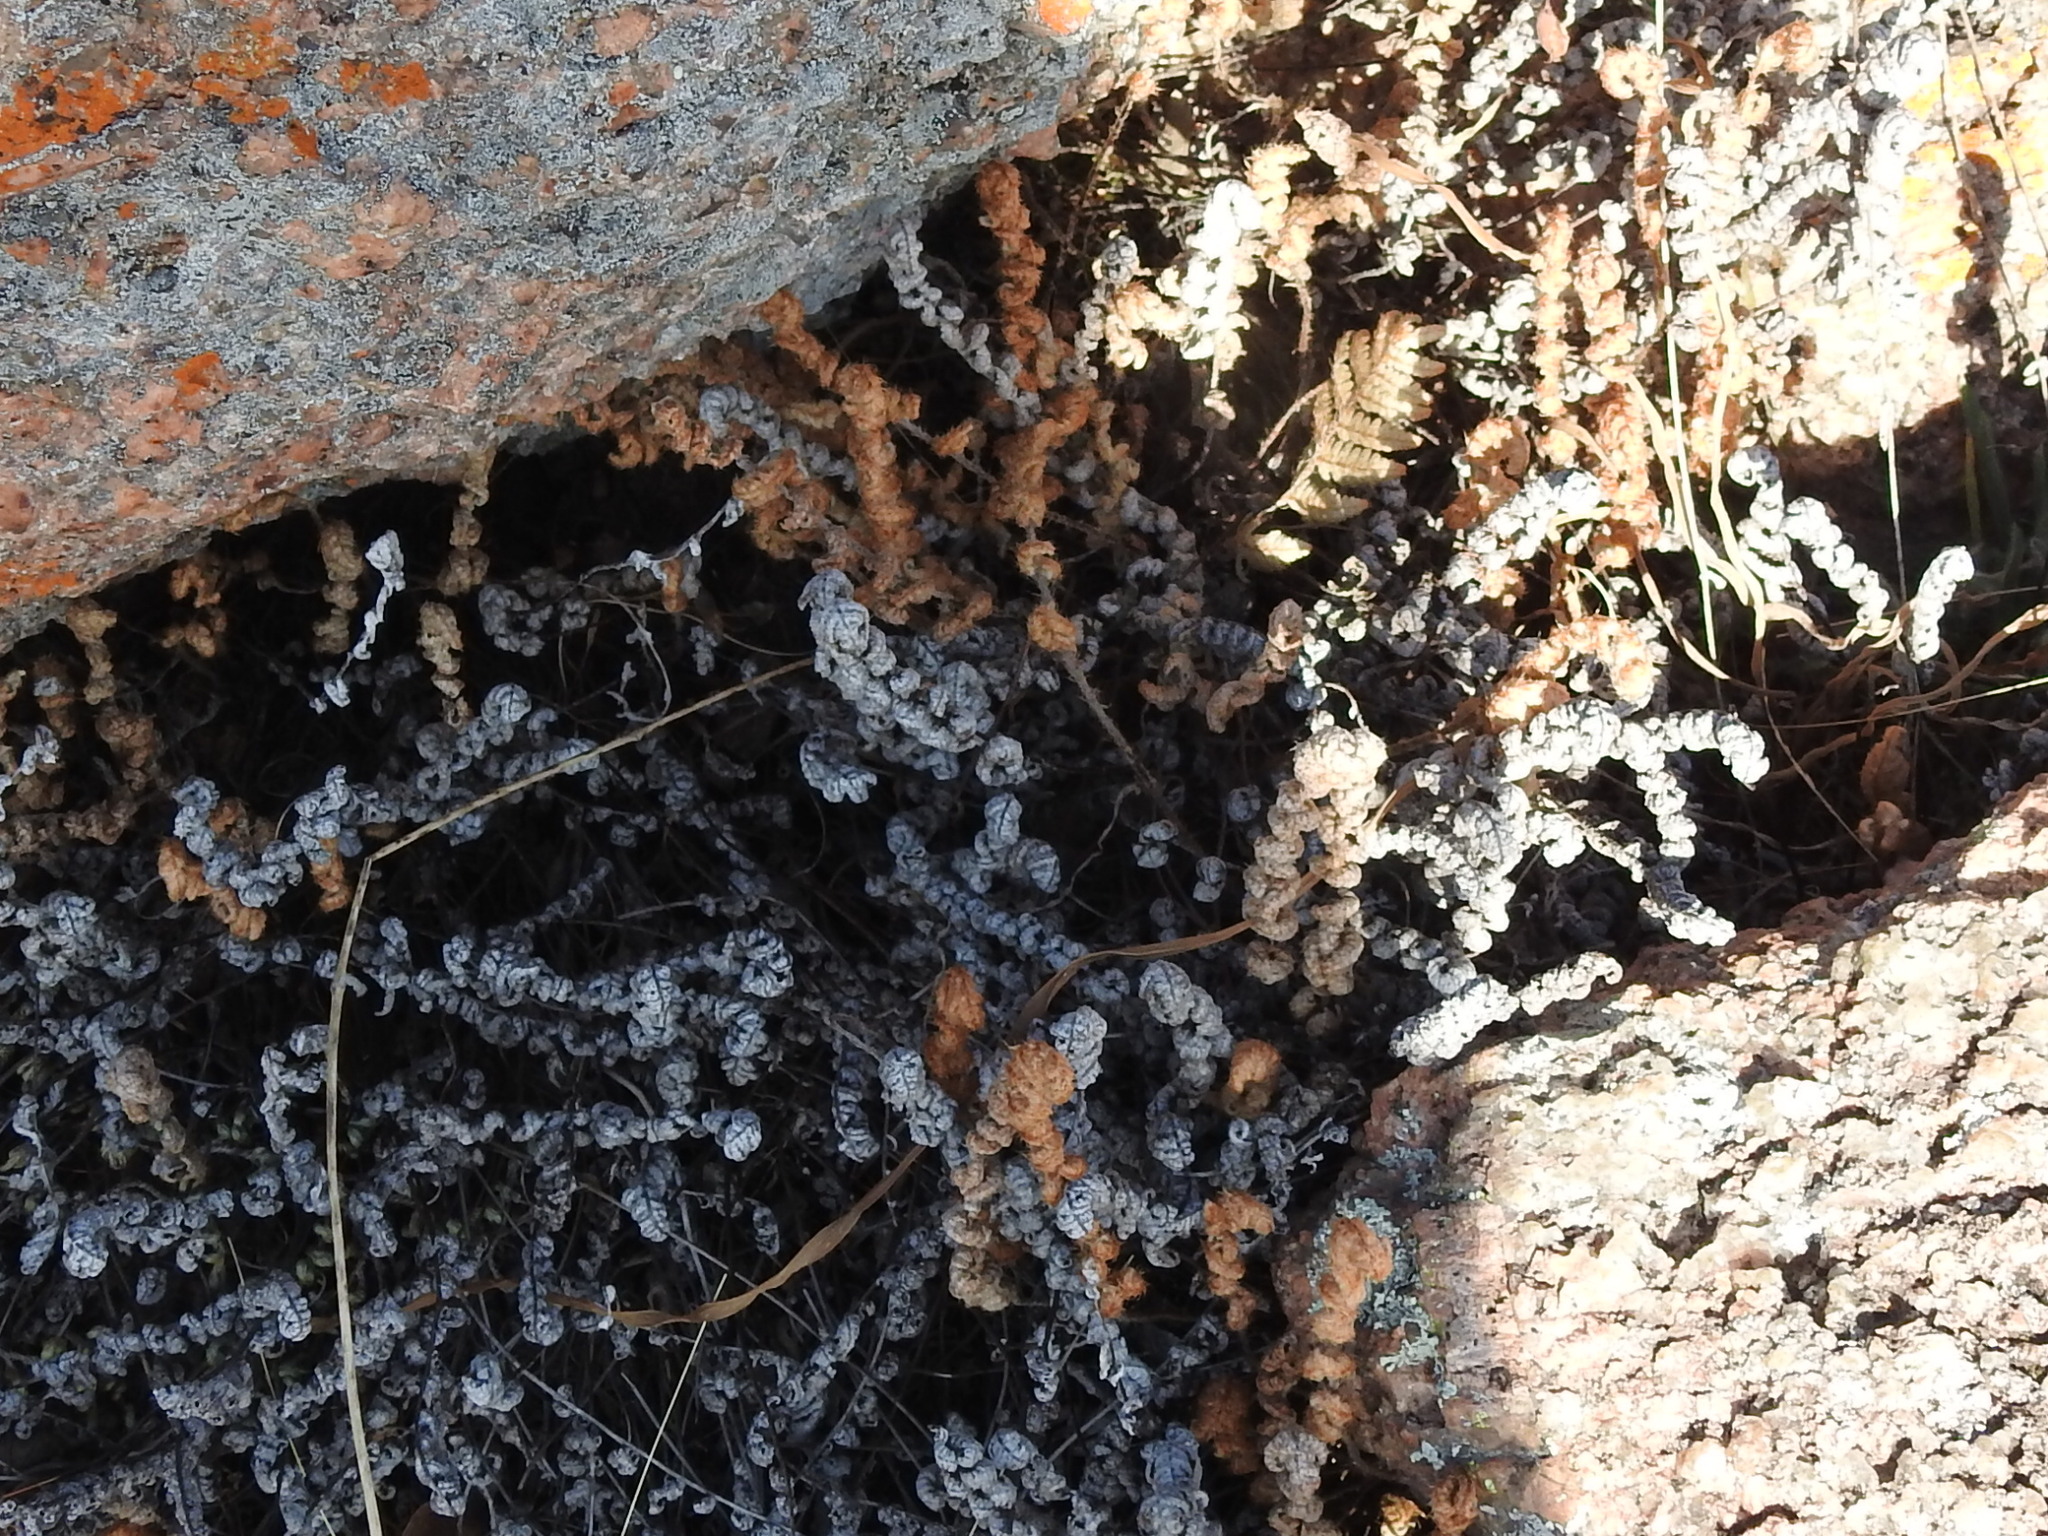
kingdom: Plantae
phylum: Tracheophyta
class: Polypodiopsida
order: Polypodiales
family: Pteridaceae
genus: Myriopteris
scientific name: Myriopteris lindheimeri
